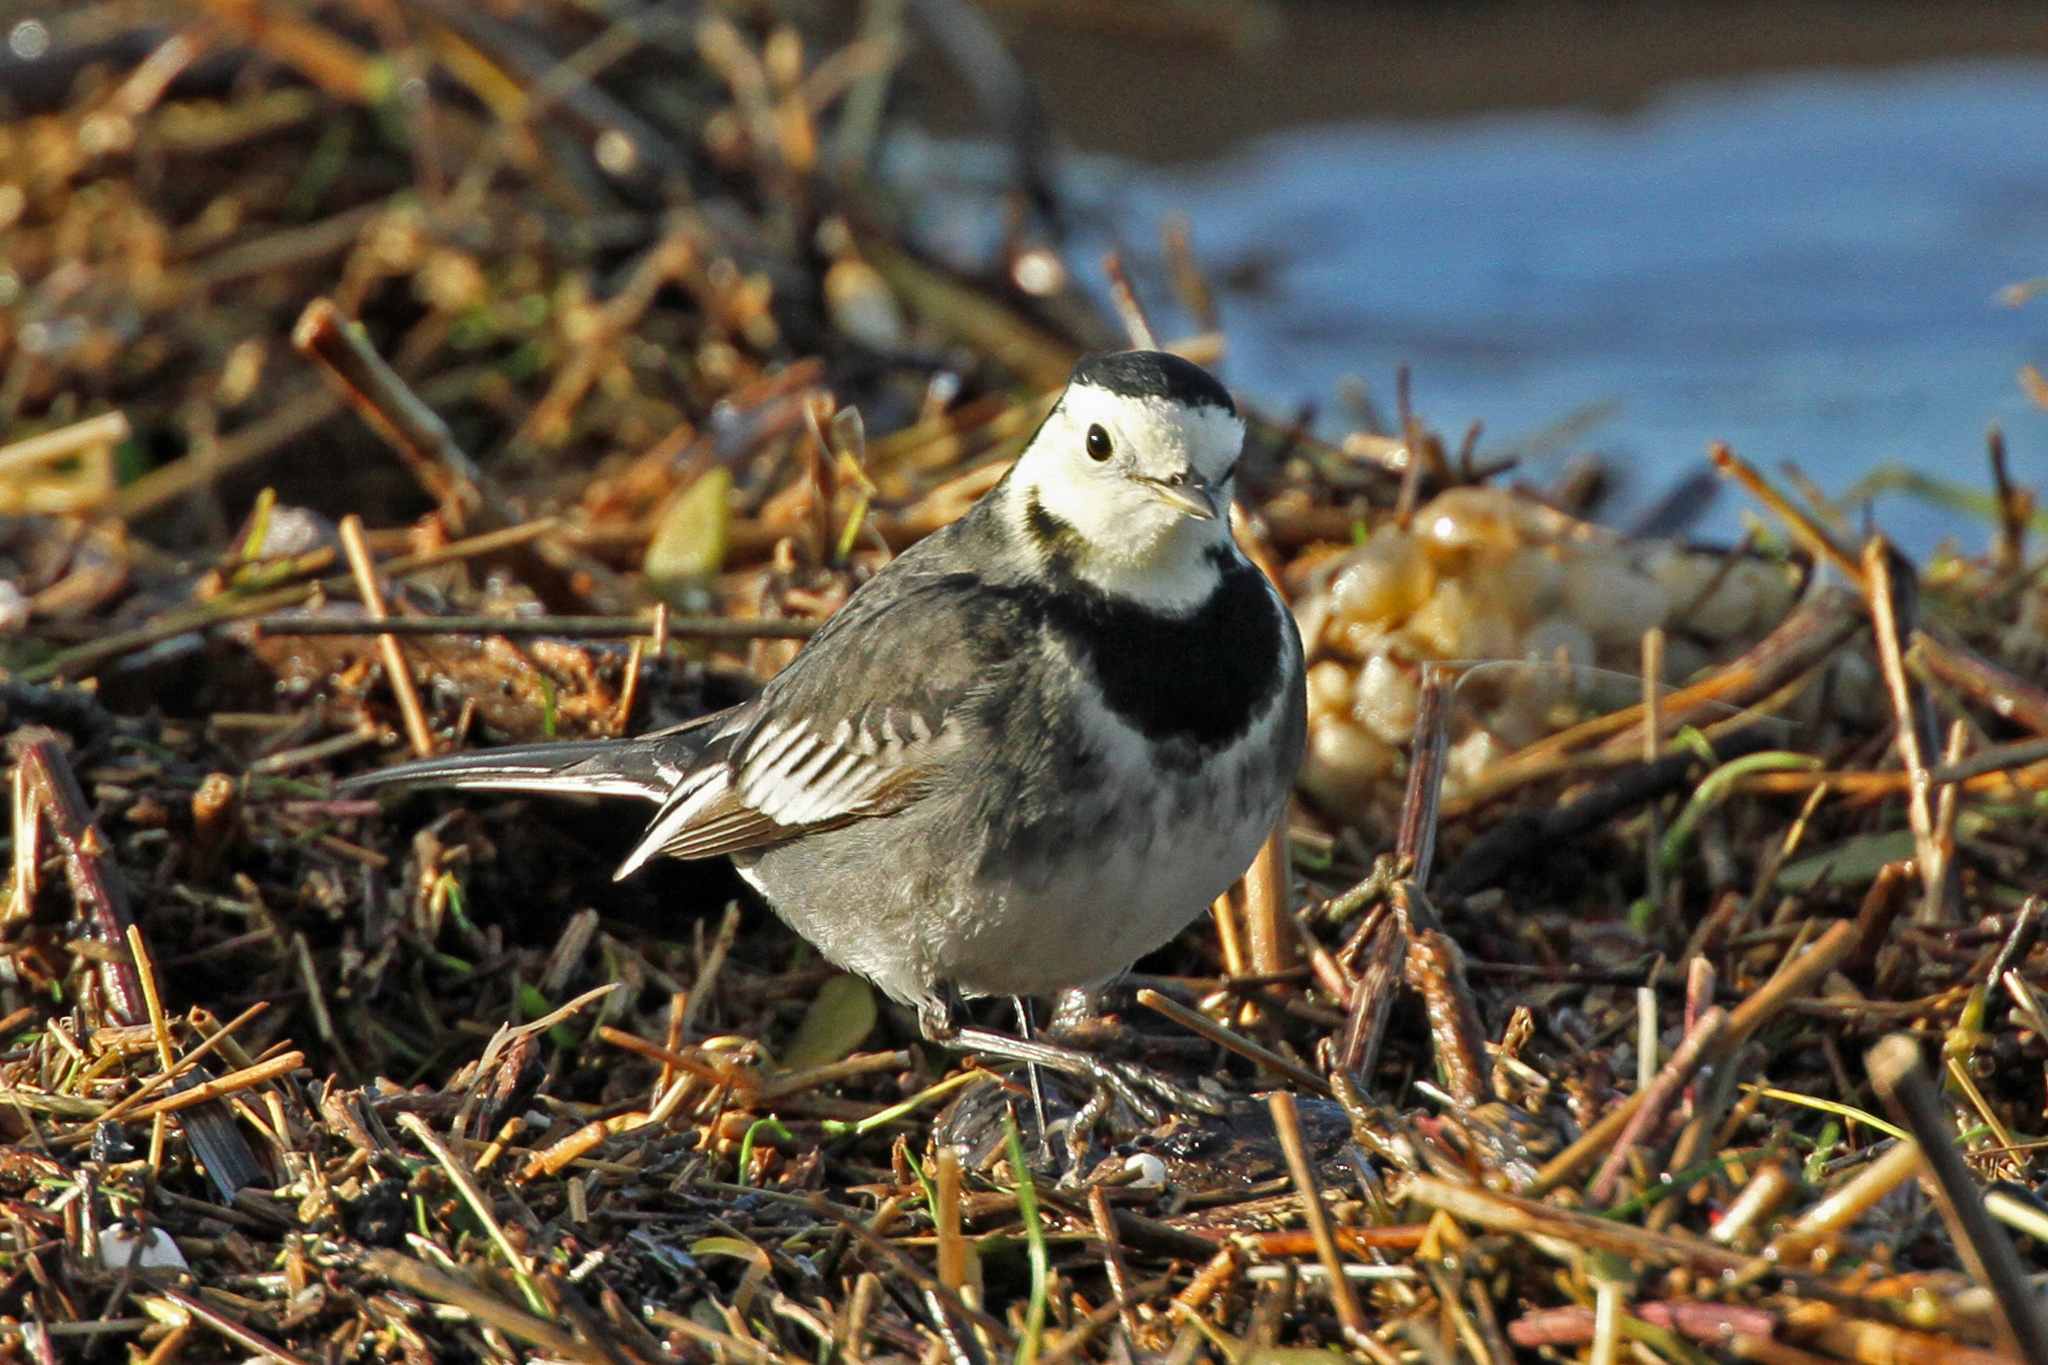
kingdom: Animalia
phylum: Chordata
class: Aves
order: Passeriformes
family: Motacillidae
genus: Motacilla
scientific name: Motacilla alba
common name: White wagtail
